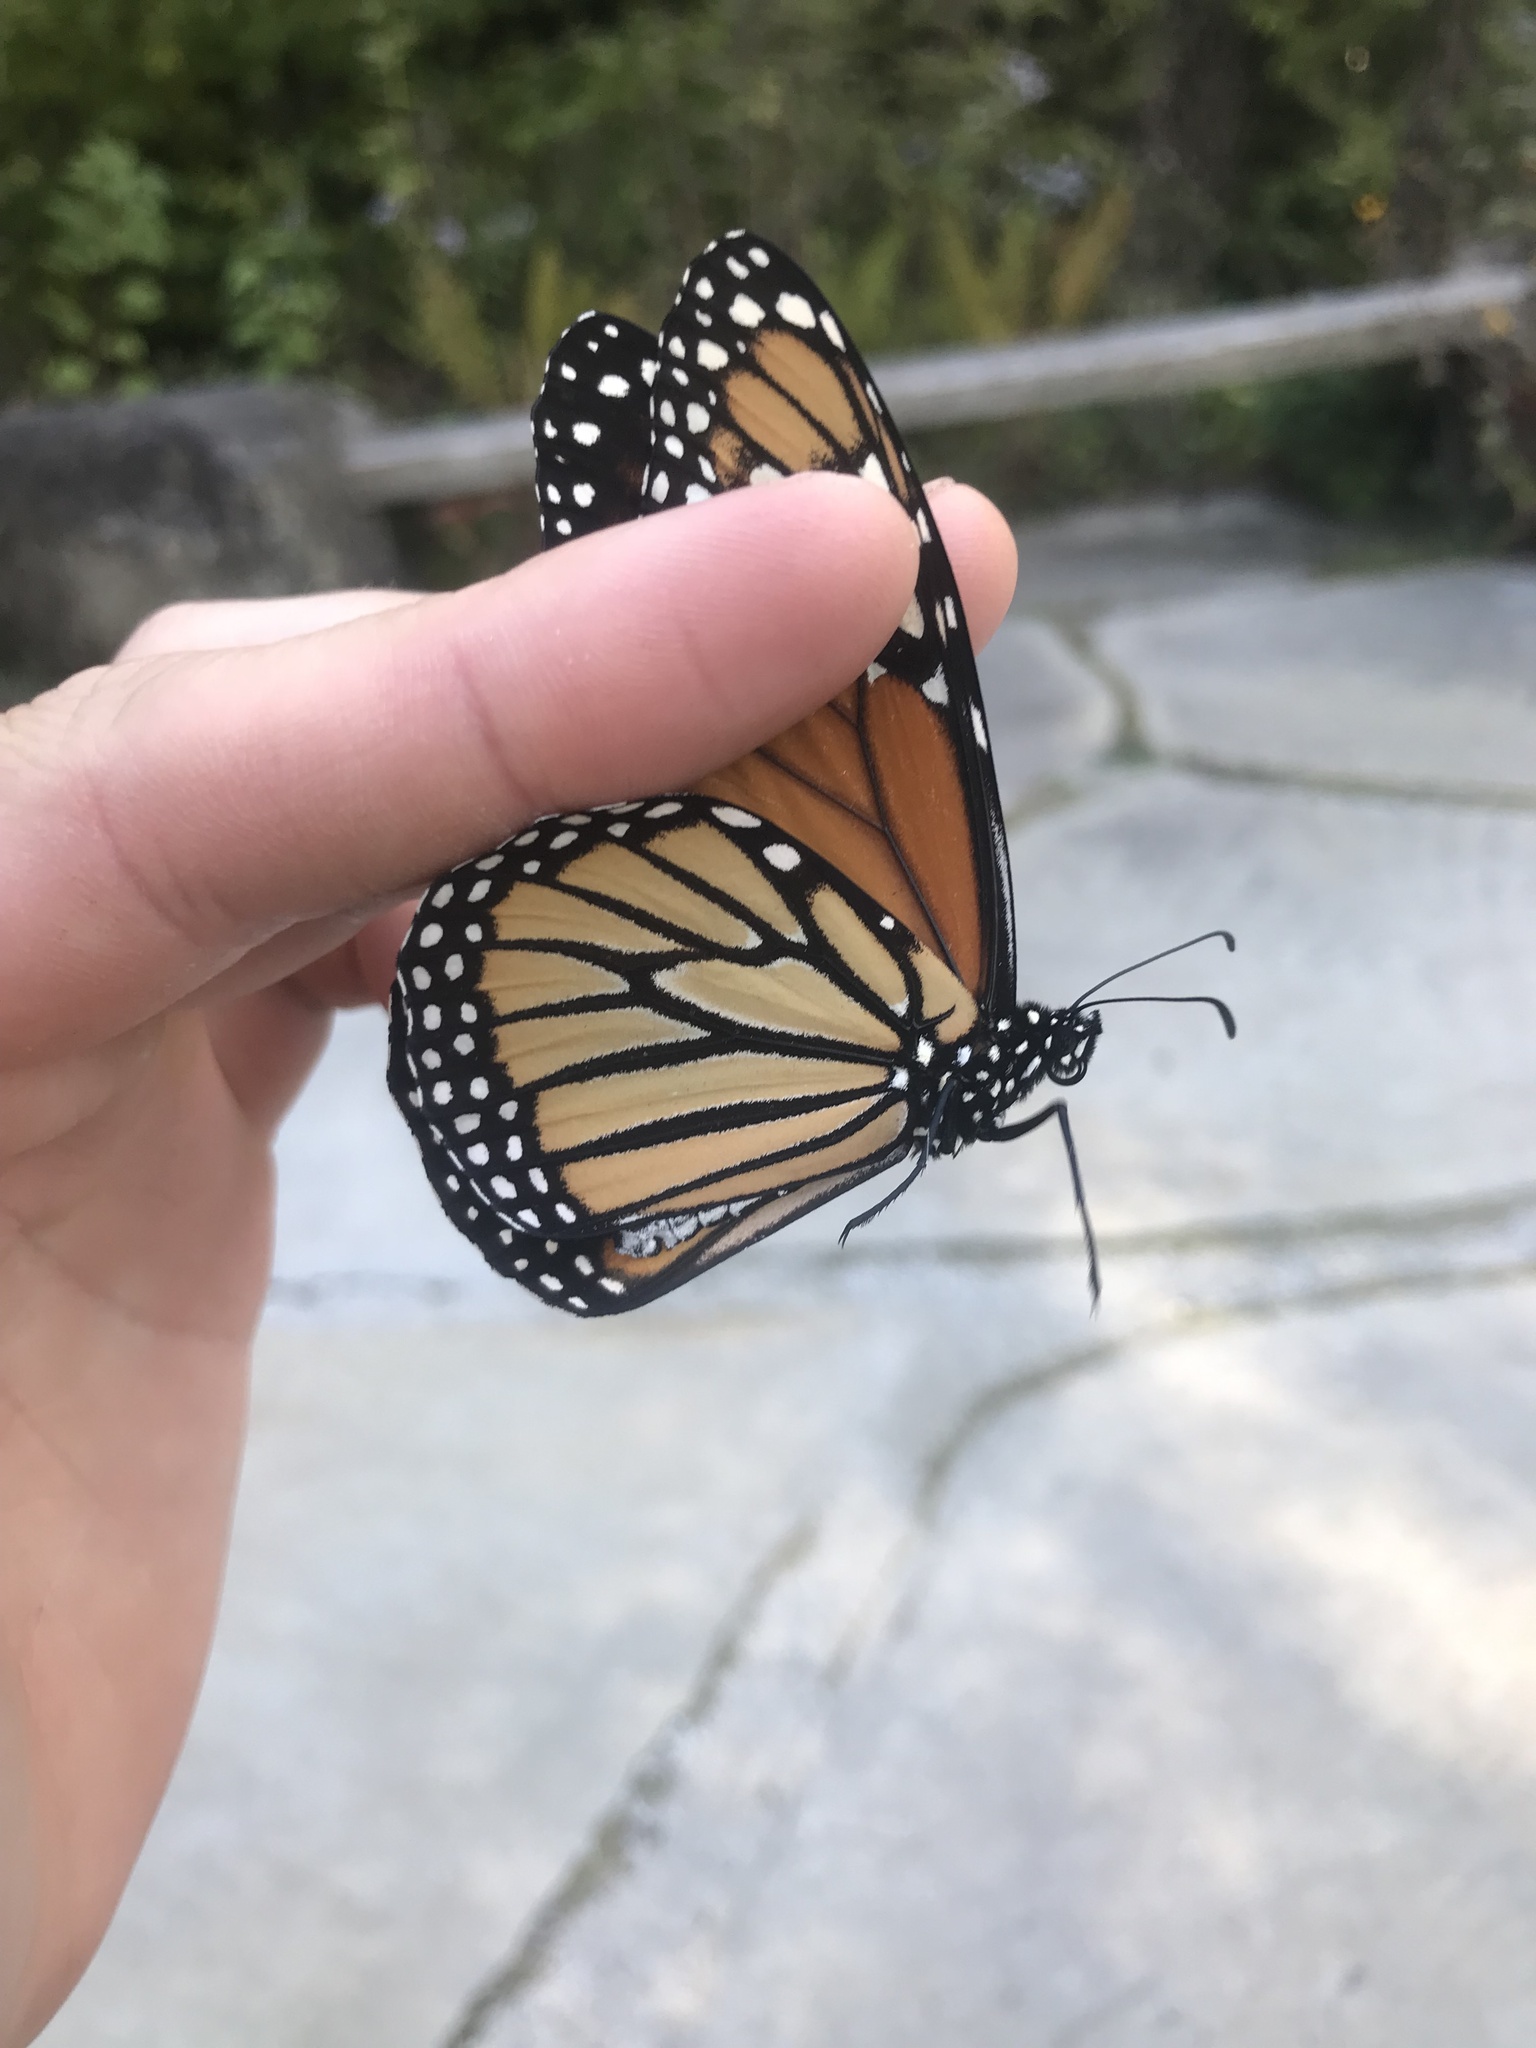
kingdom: Animalia
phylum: Arthropoda
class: Insecta
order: Lepidoptera
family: Nymphalidae
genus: Danaus
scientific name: Danaus plexippus
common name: Monarch
